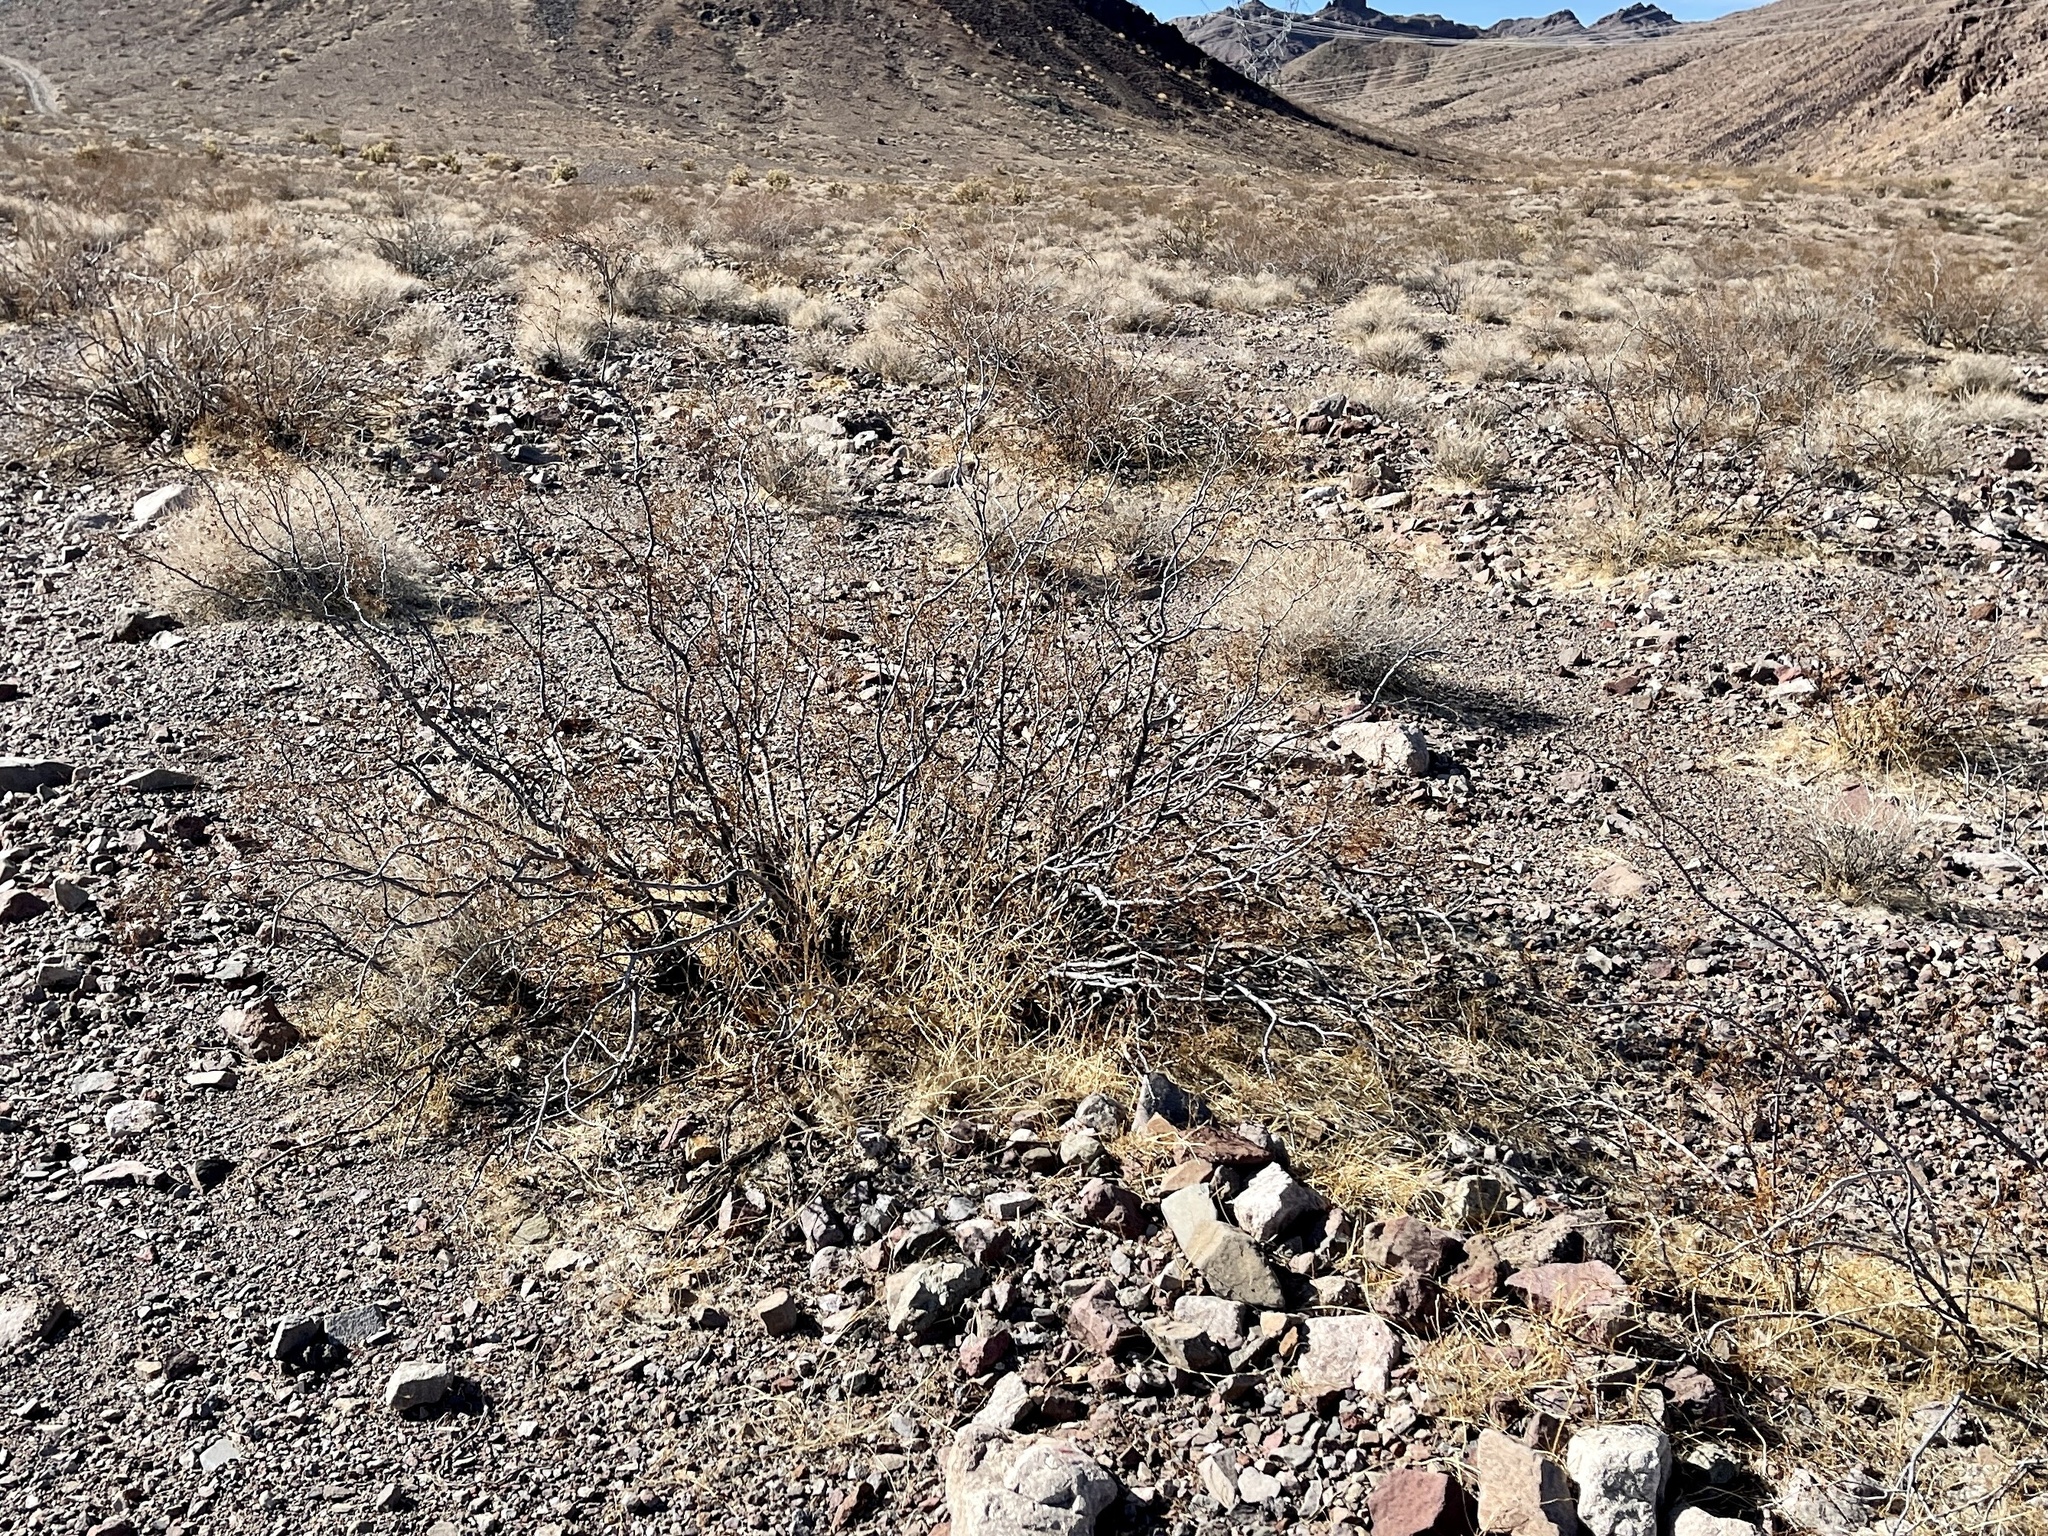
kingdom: Plantae
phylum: Tracheophyta
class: Magnoliopsida
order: Zygophyllales
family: Zygophyllaceae
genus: Larrea
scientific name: Larrea tridentata
